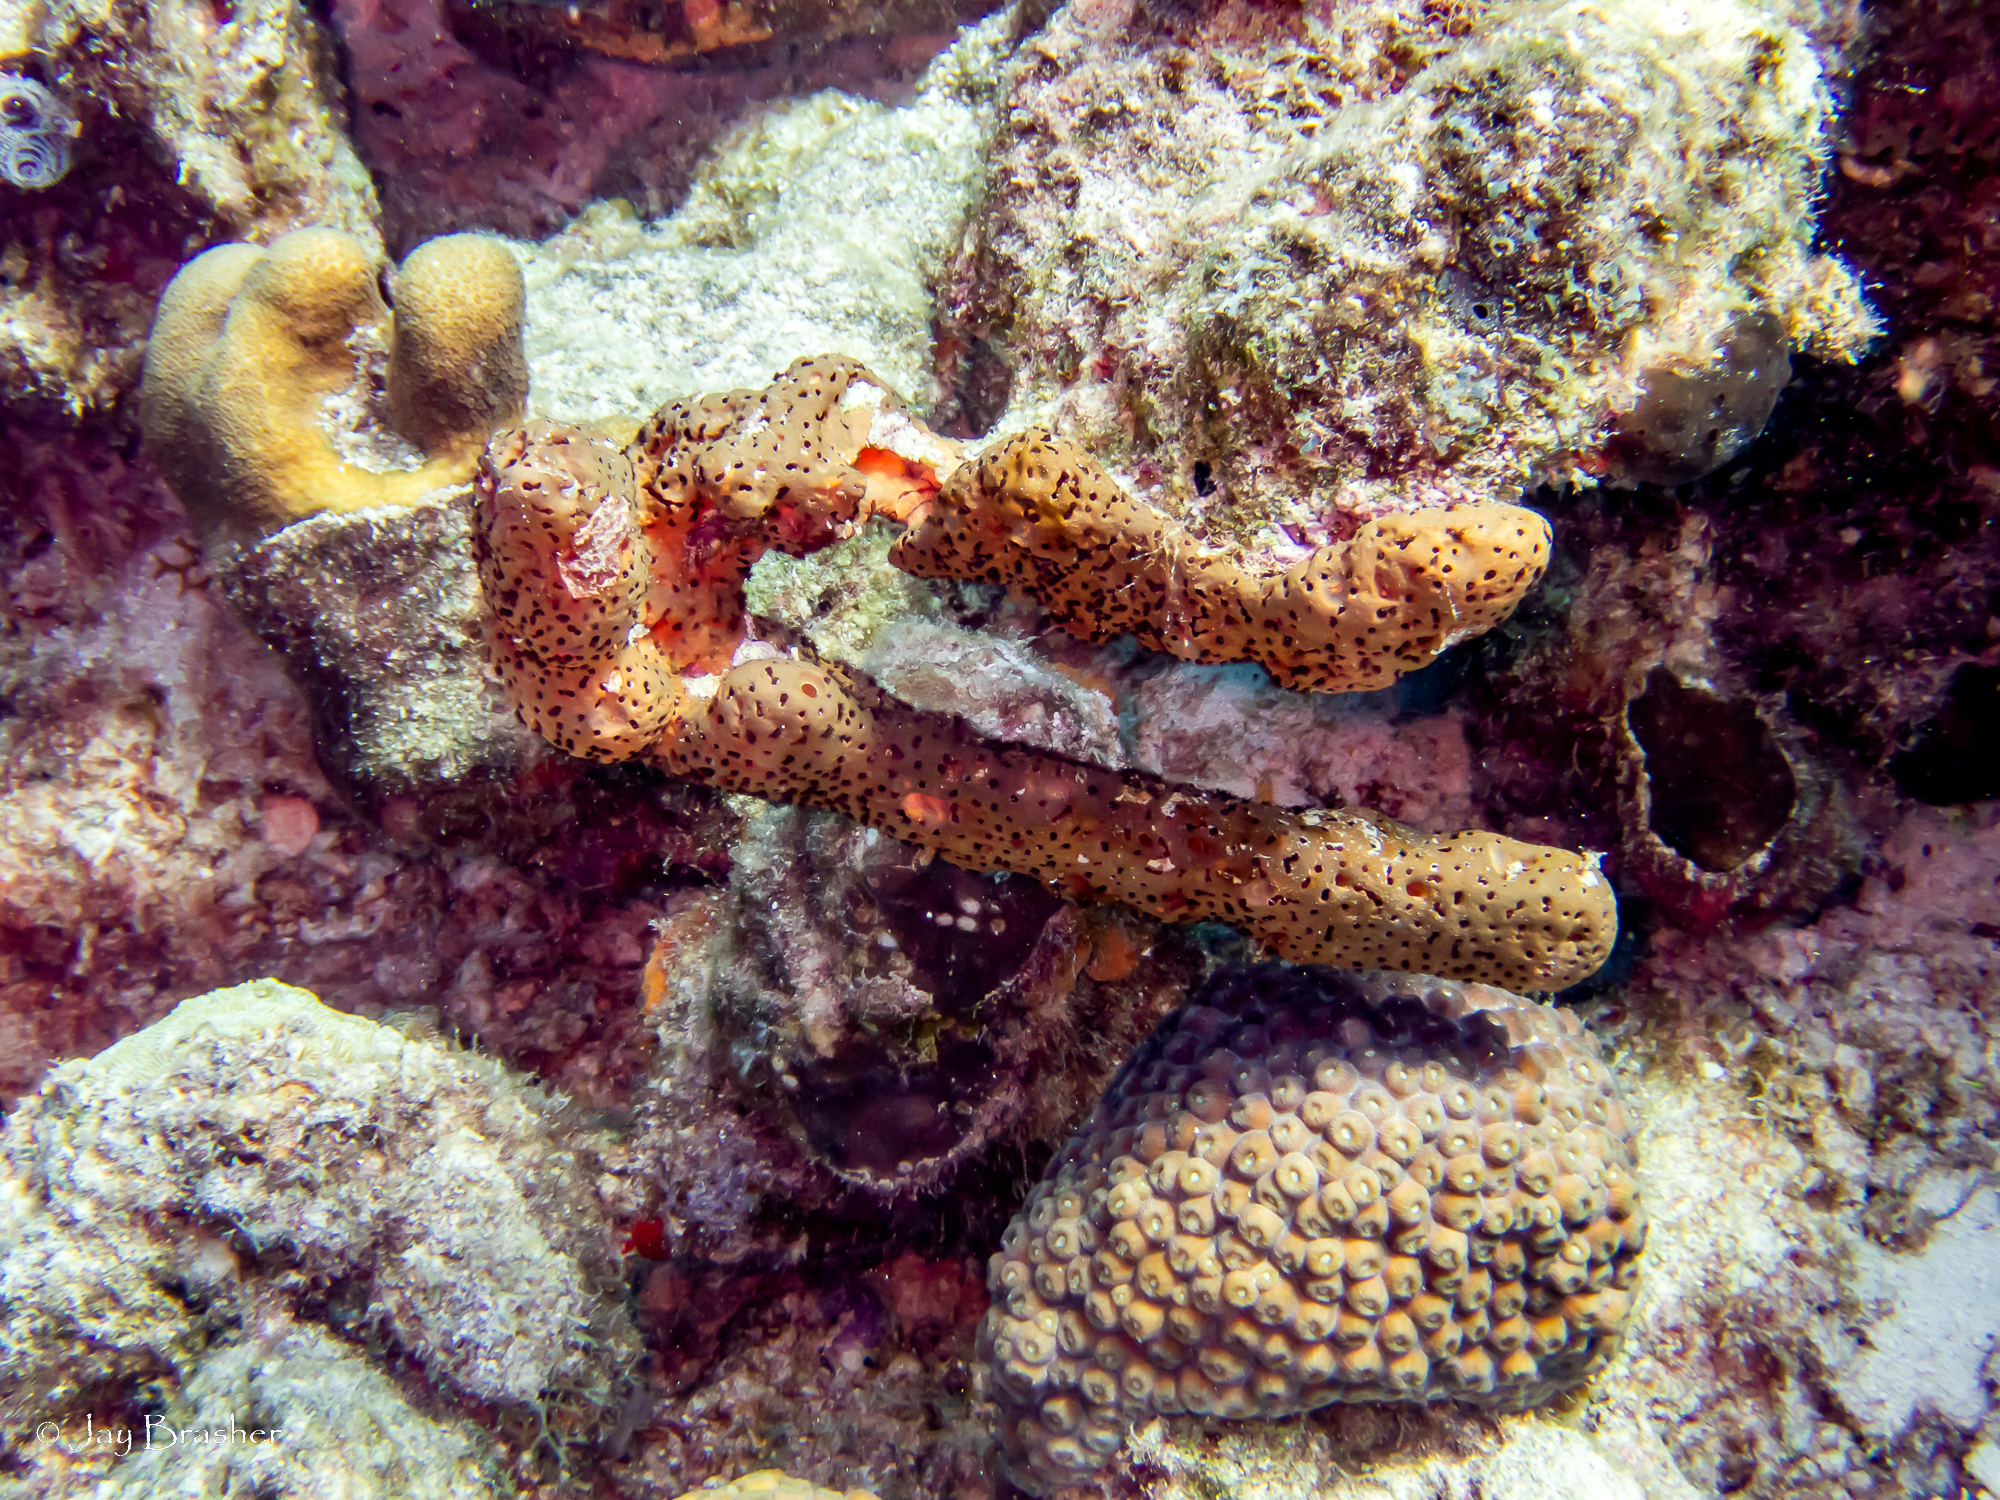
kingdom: Animalia
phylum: Porifera
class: Demospongiae
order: Agelasida
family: Agelasidae
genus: Agelas
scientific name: Agelas conifera
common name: Brown tube sponge
